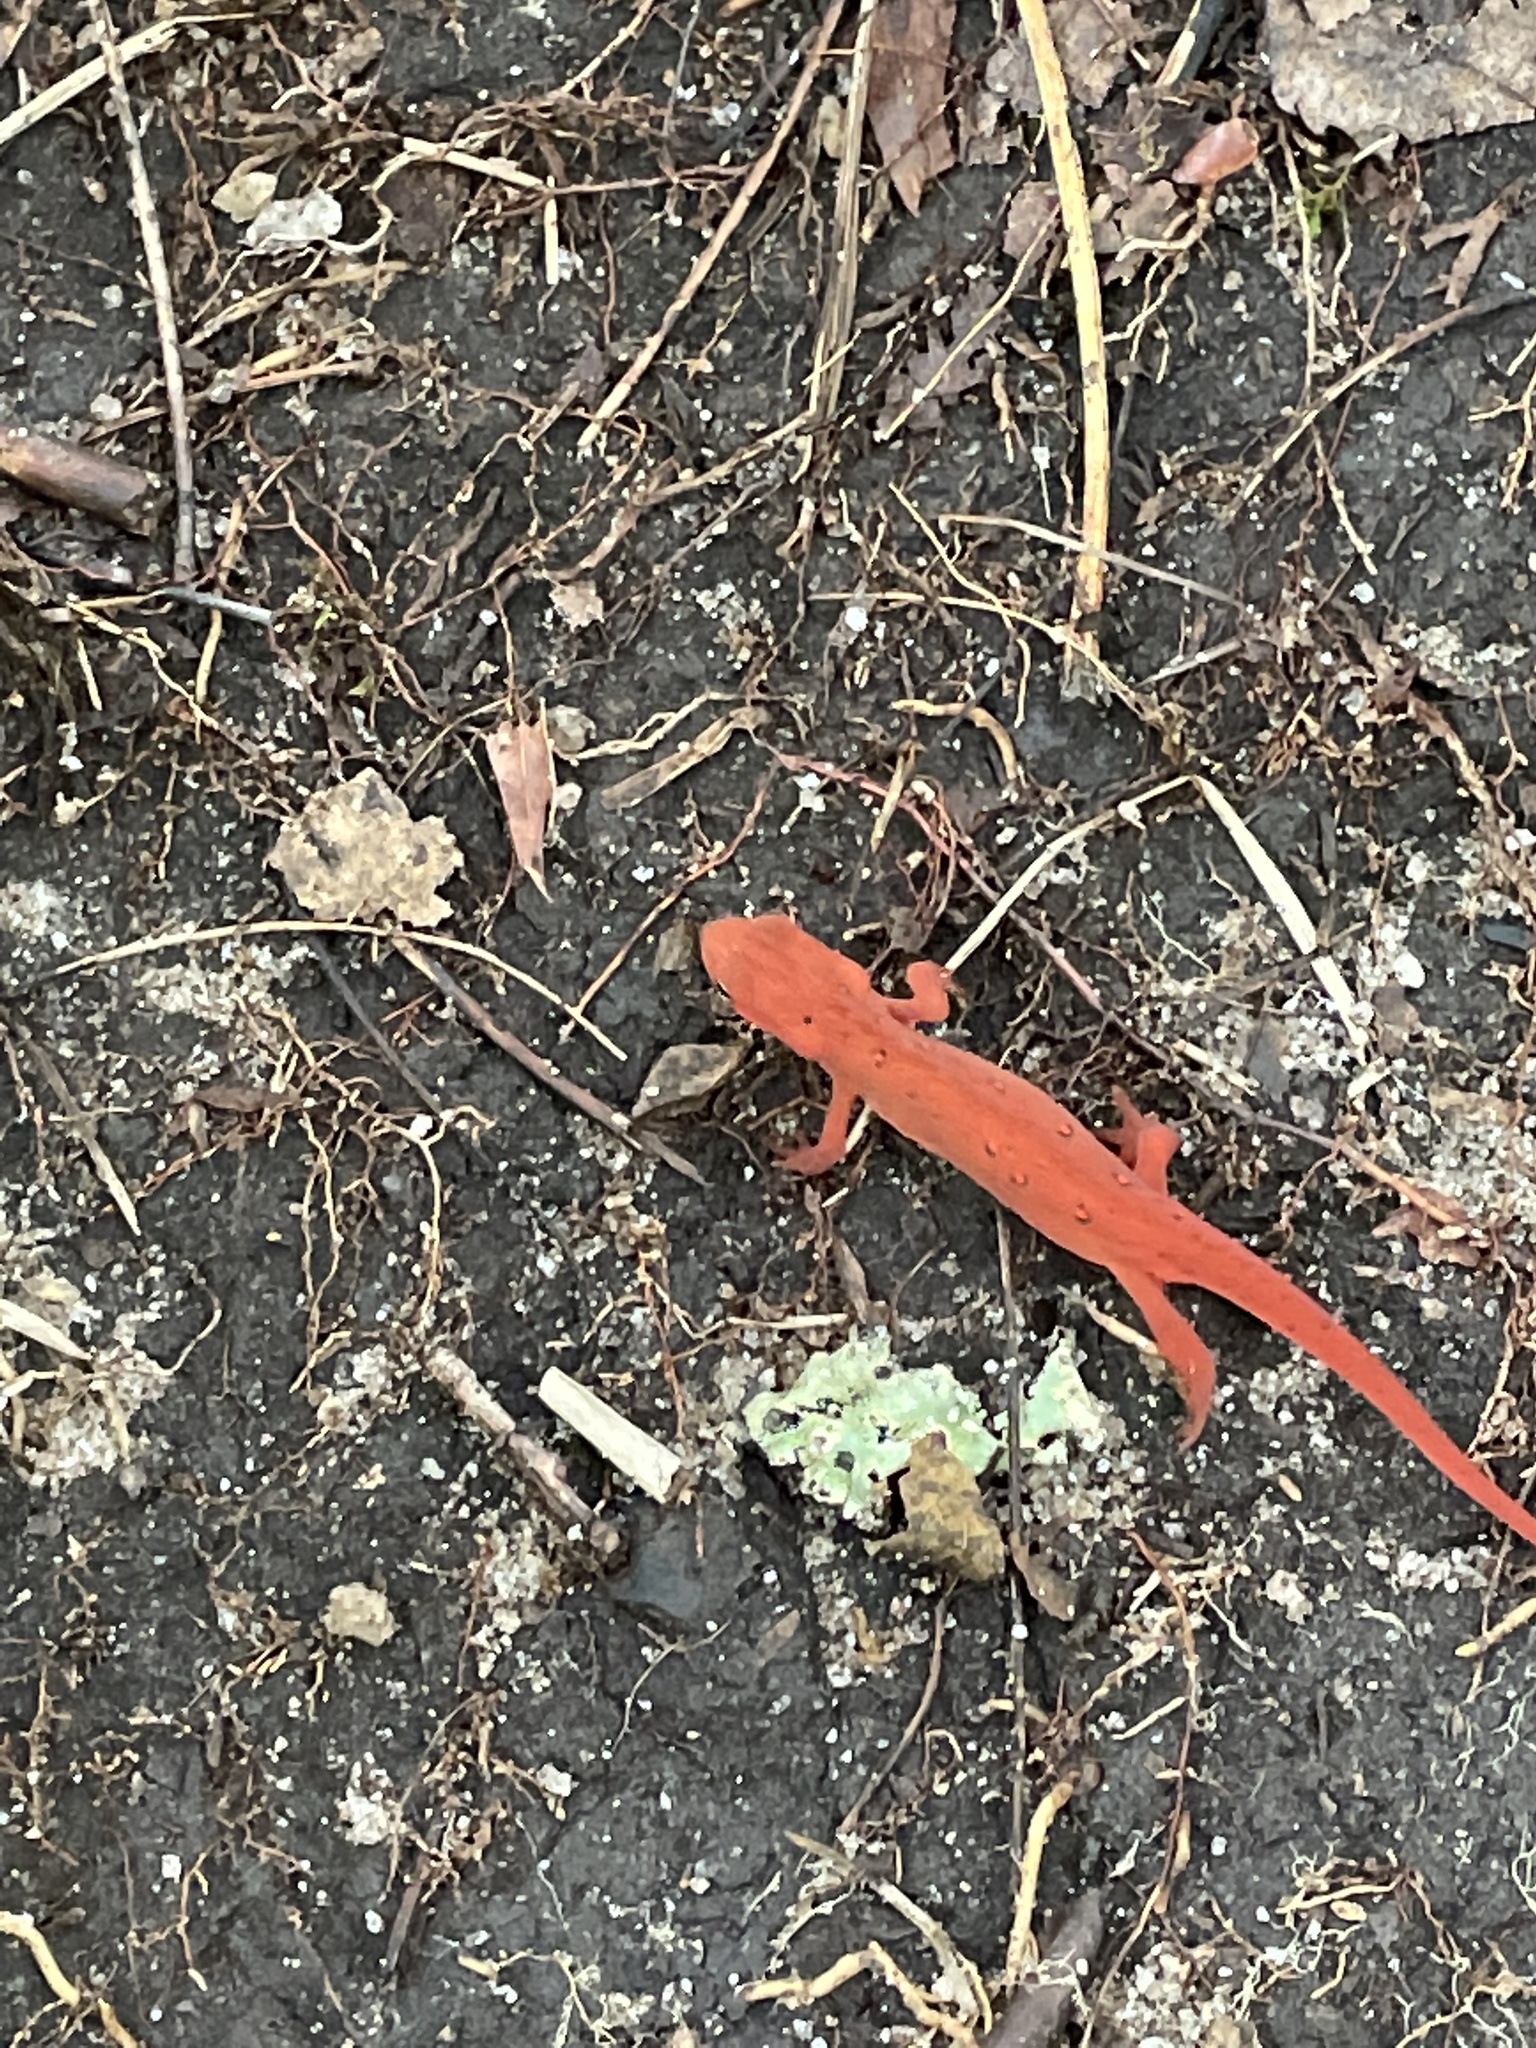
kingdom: Animalia
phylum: Chordata
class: Amphibia
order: Caudata
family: Salamandridae
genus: Notophthalmus
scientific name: Notophthalmus viridescens
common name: Eastern newt
